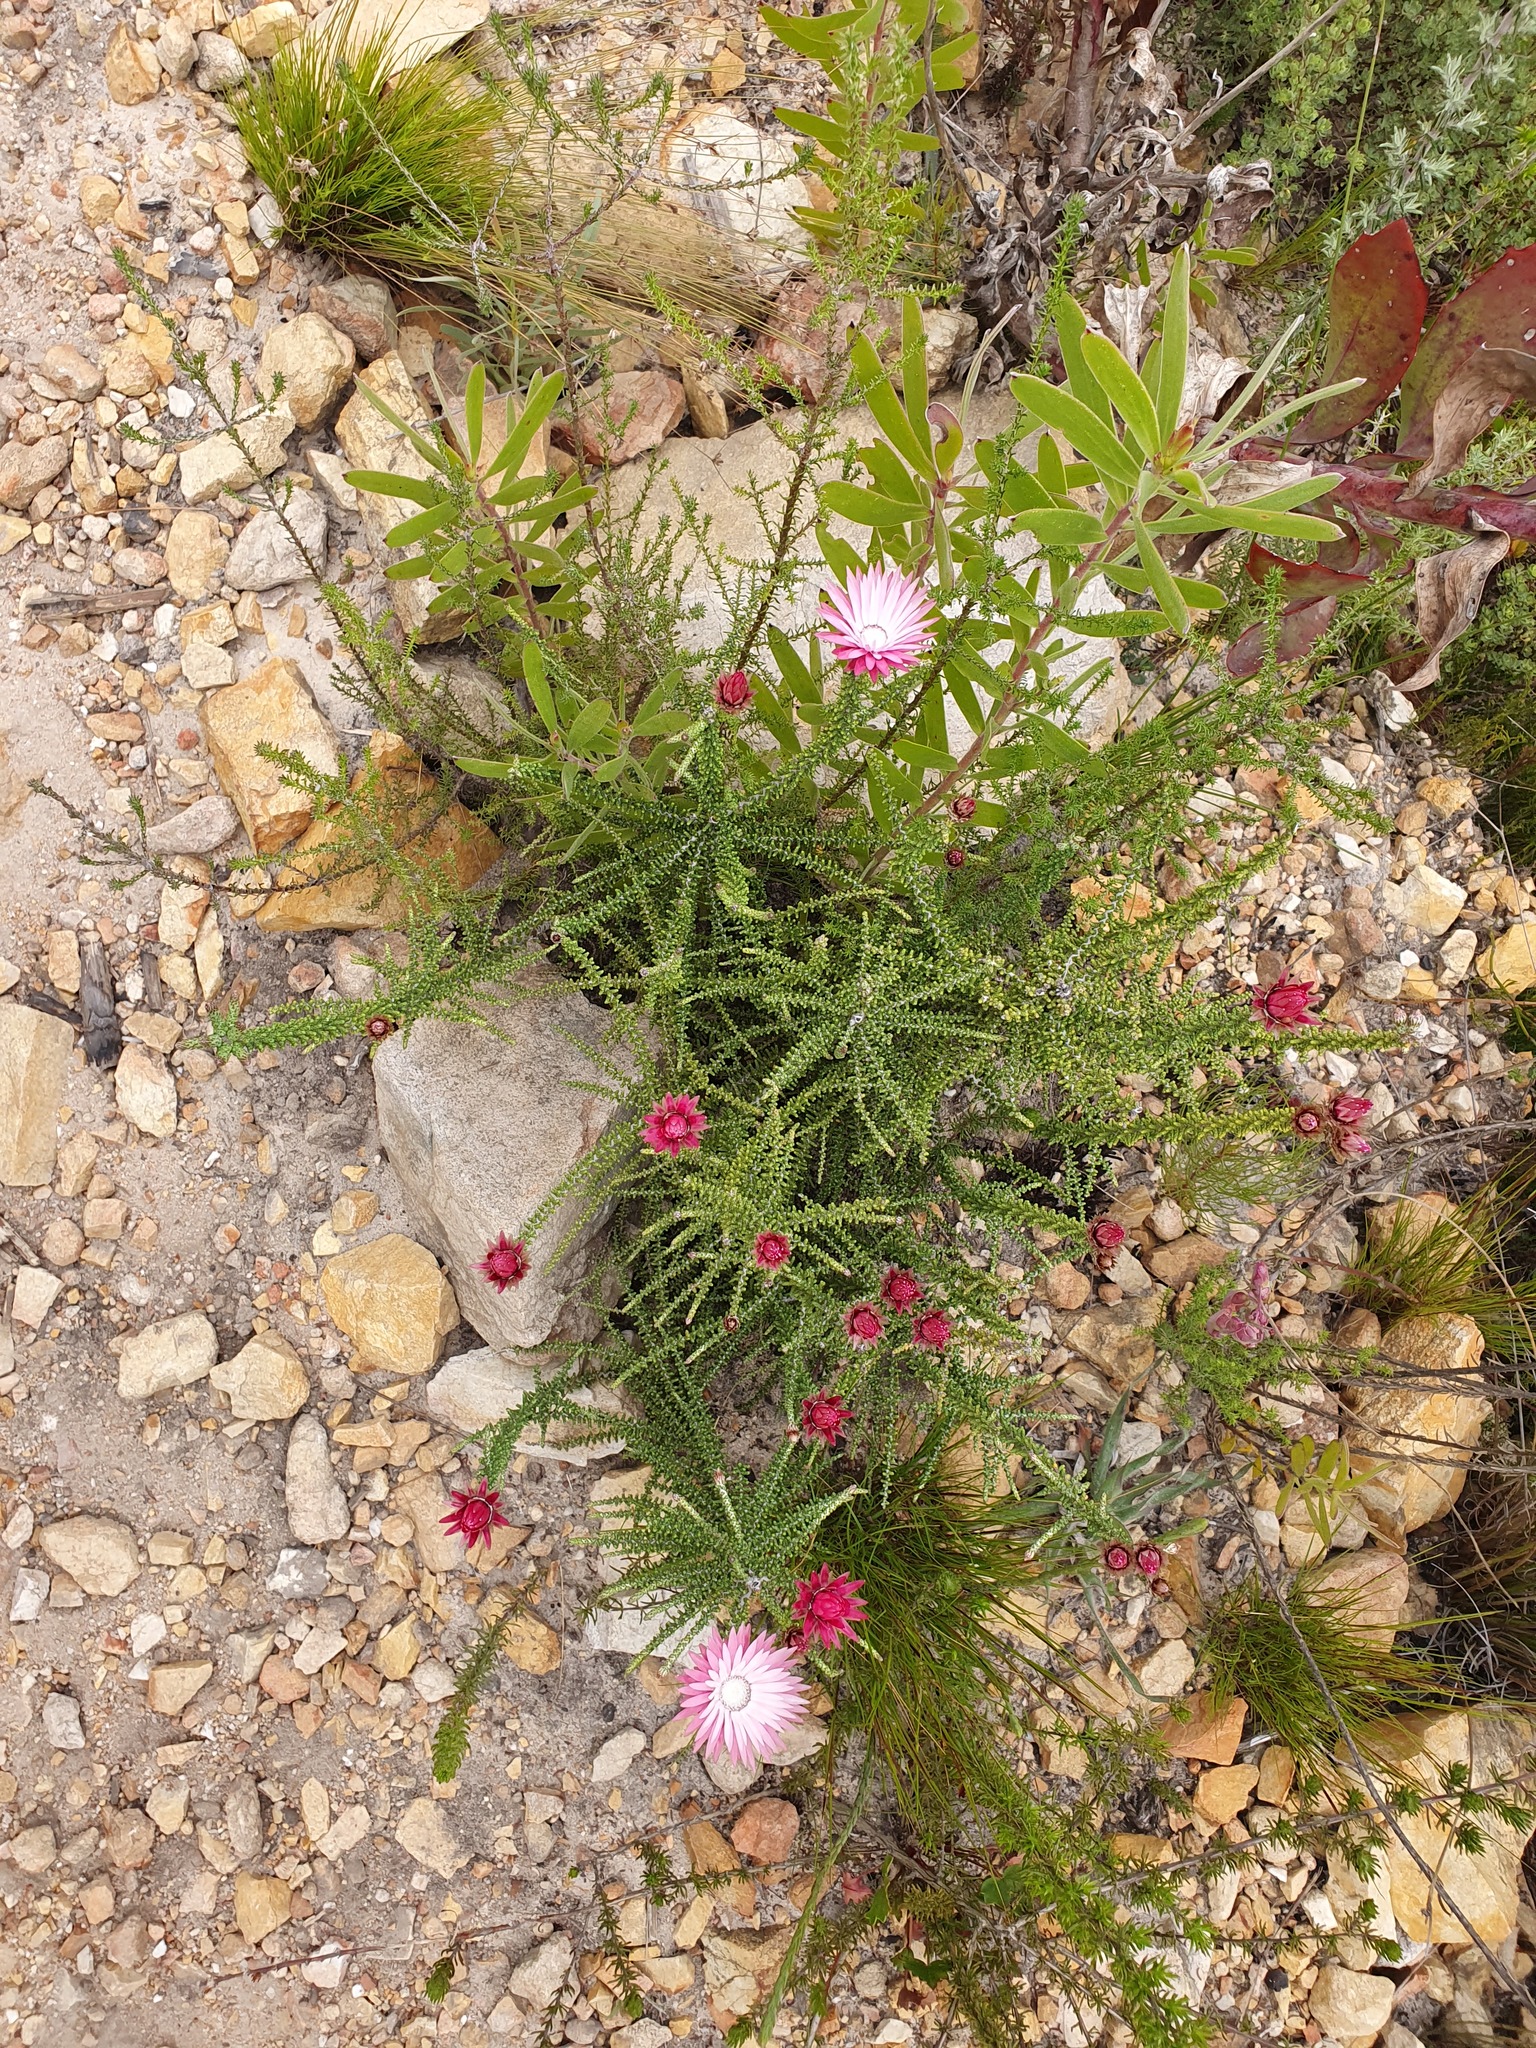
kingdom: Plantae
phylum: Tracheophyta
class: Magnoliopsida
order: Asterales
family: Asteraceae
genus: Phaenocoma
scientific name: Phaenocoma prolifera
